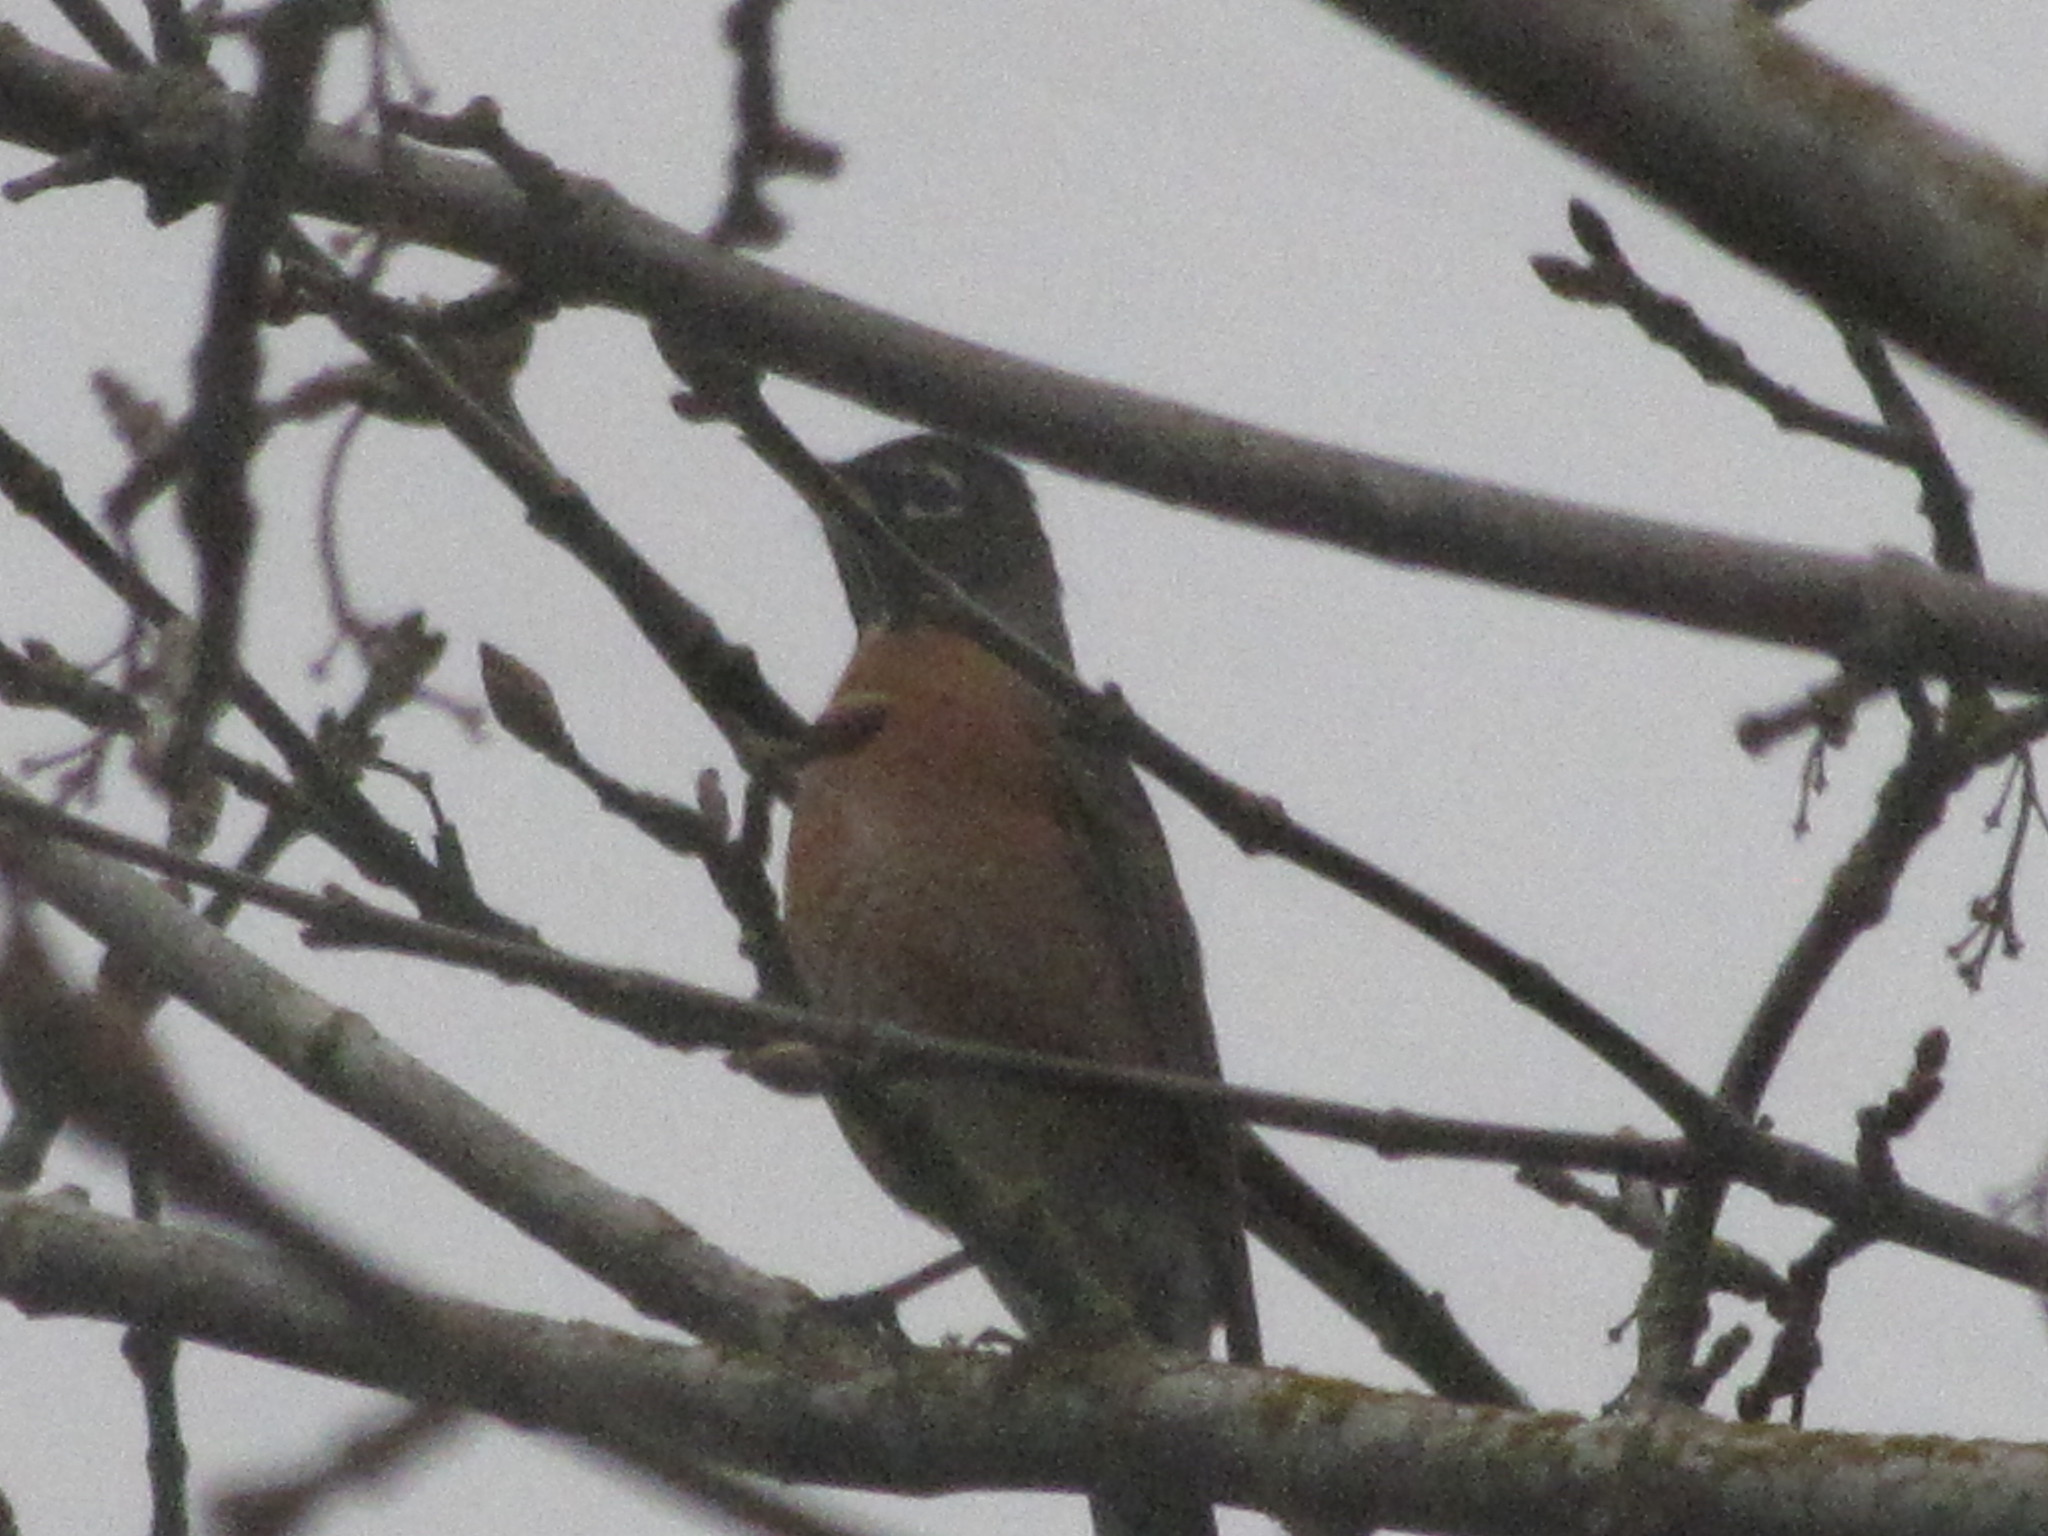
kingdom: Animalia
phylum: Chordata
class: Aves
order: Passeriformes
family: Turdidae
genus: Turdus
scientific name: Turdus migratorius
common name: American robin
